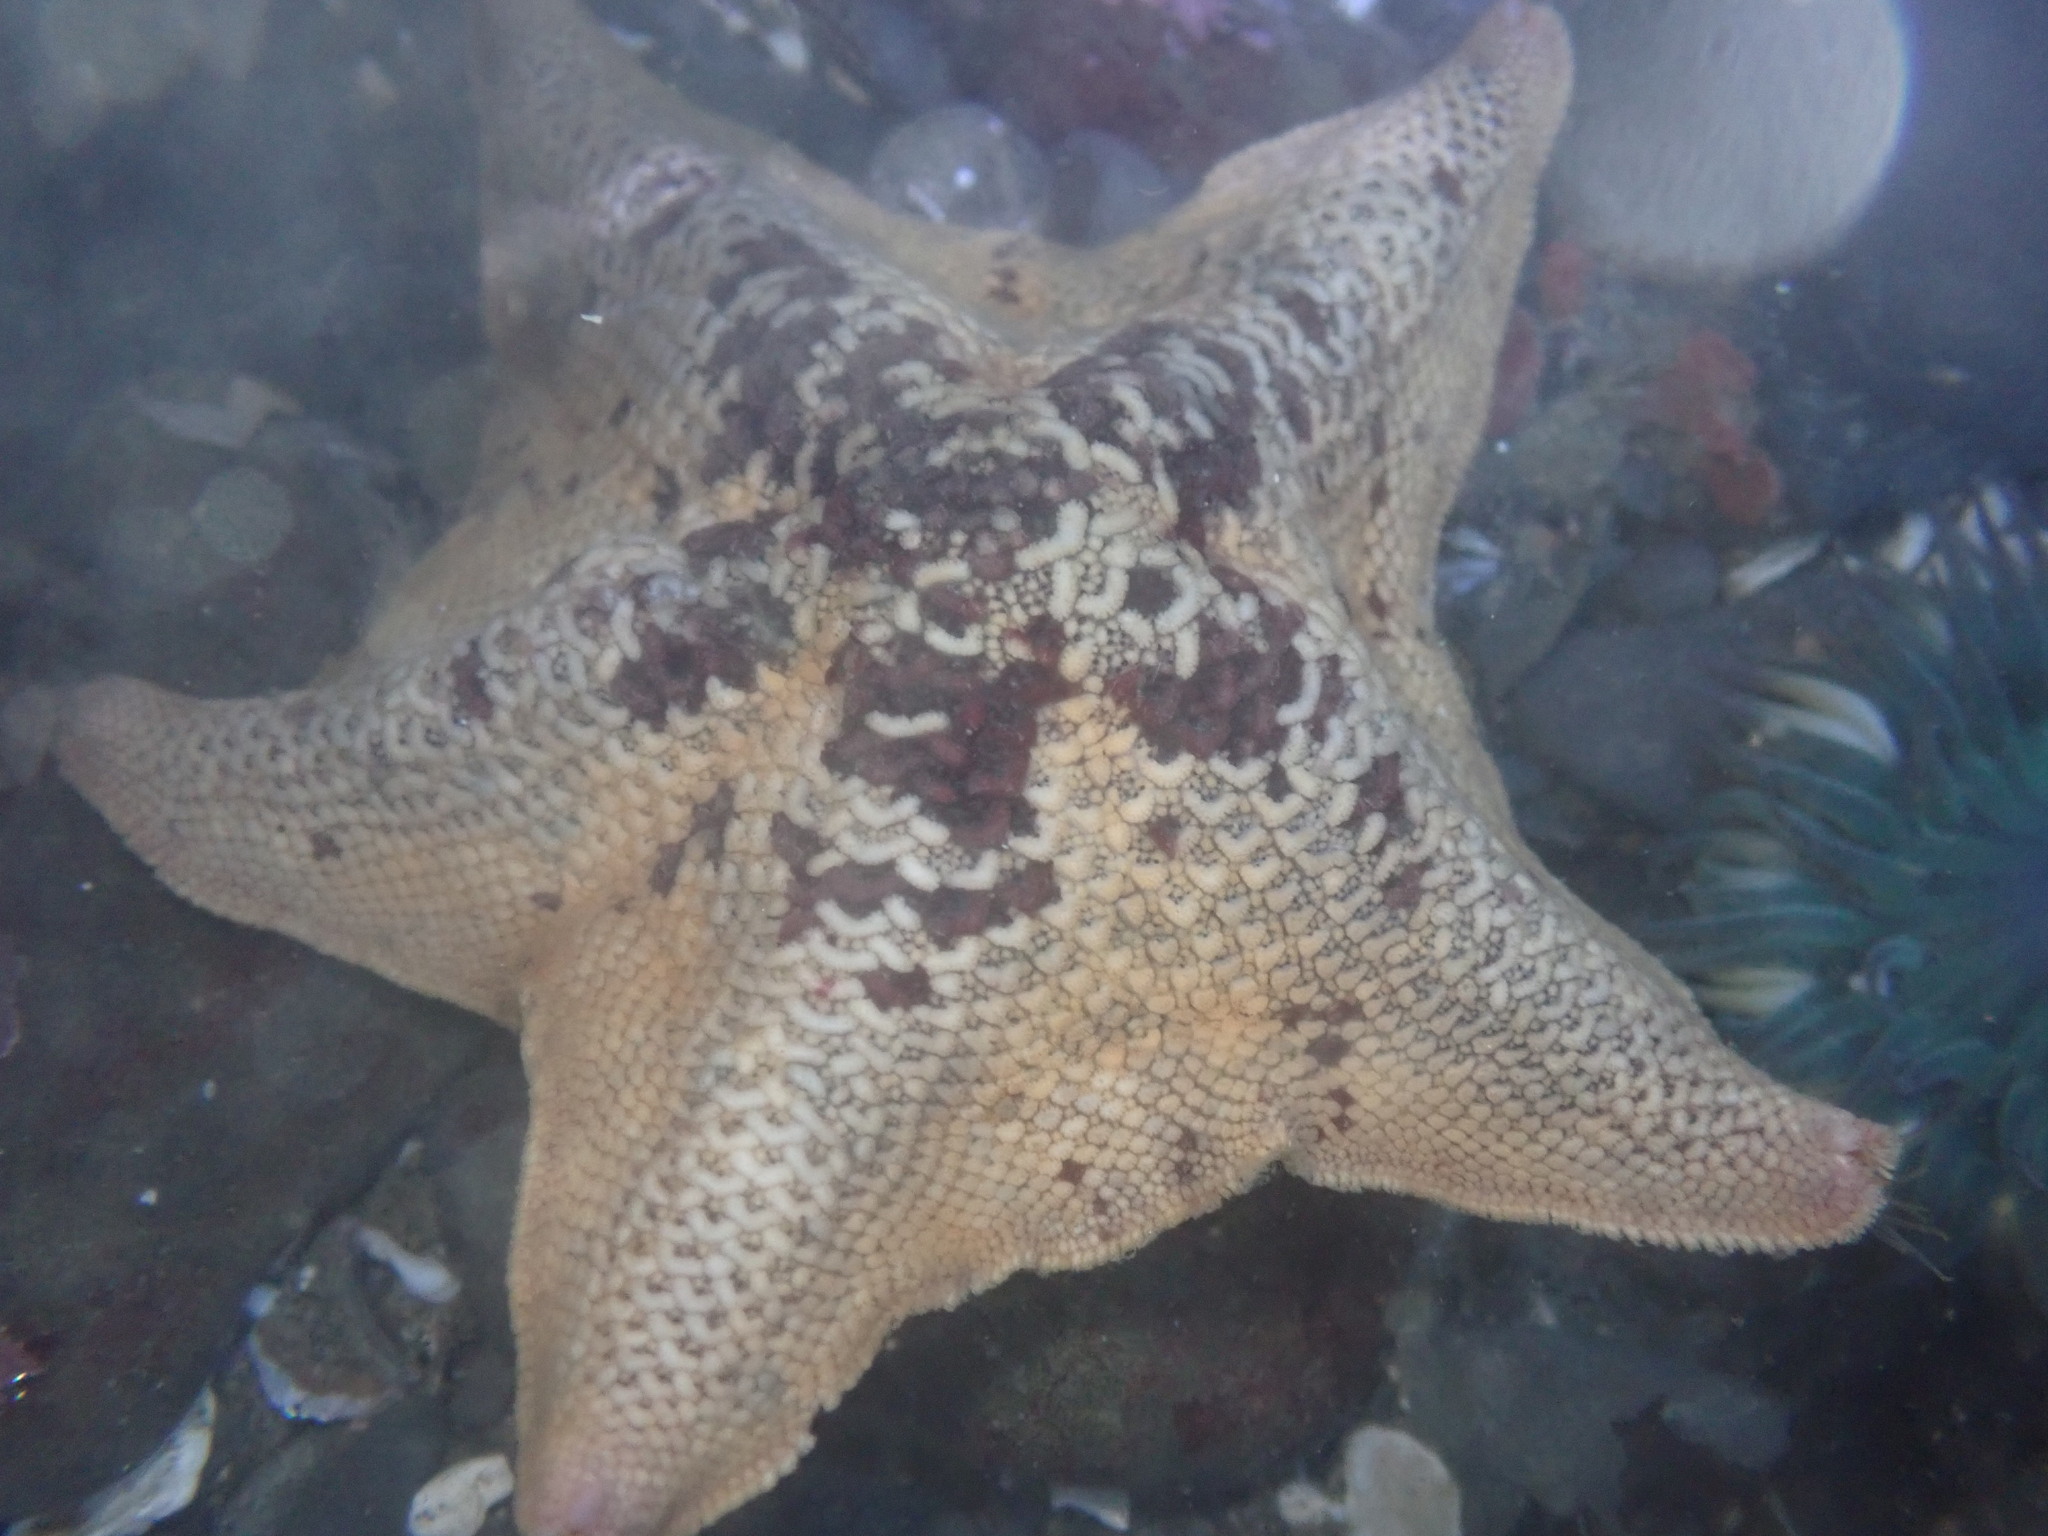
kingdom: Animalia
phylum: Echinodermata
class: Asteroidea
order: Valvatida
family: Asterinidae
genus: Patiria
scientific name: Patiria miniata
